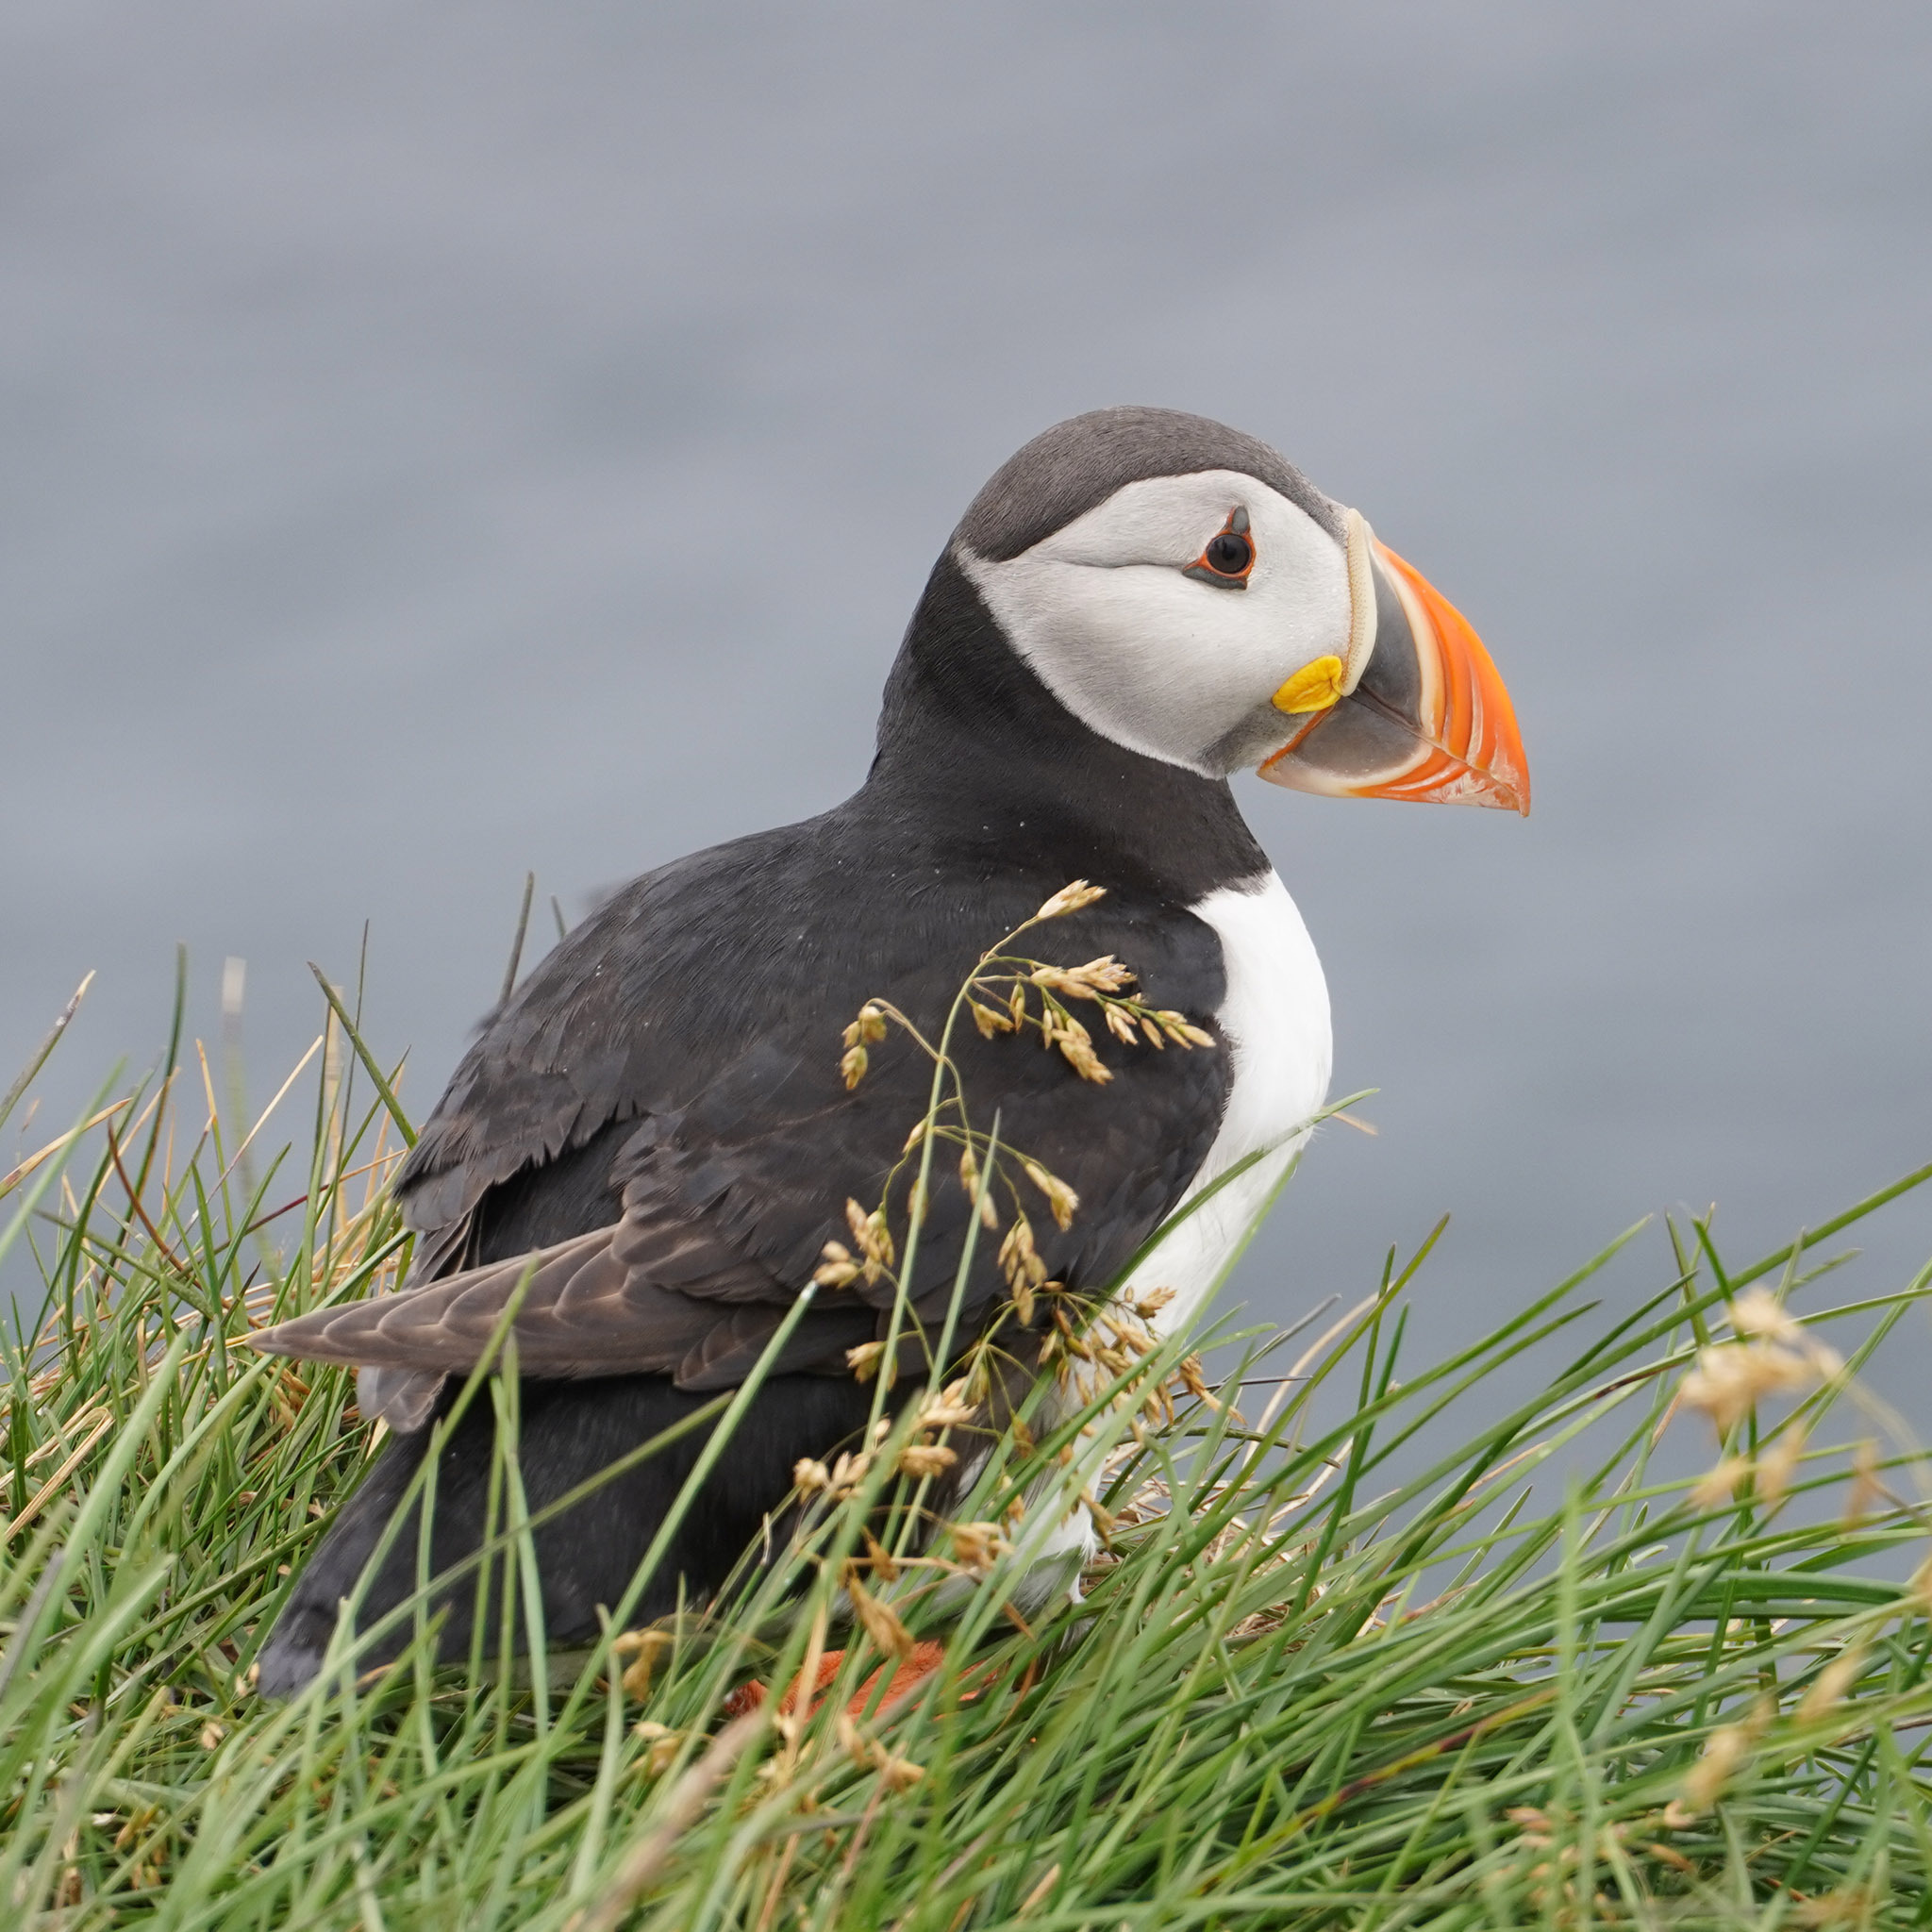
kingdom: Animalia
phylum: Chordata
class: Aves
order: Charadriiformes
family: Alcidae
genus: Fratercula
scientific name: Fratercula arctica
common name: Atlantic puffin
